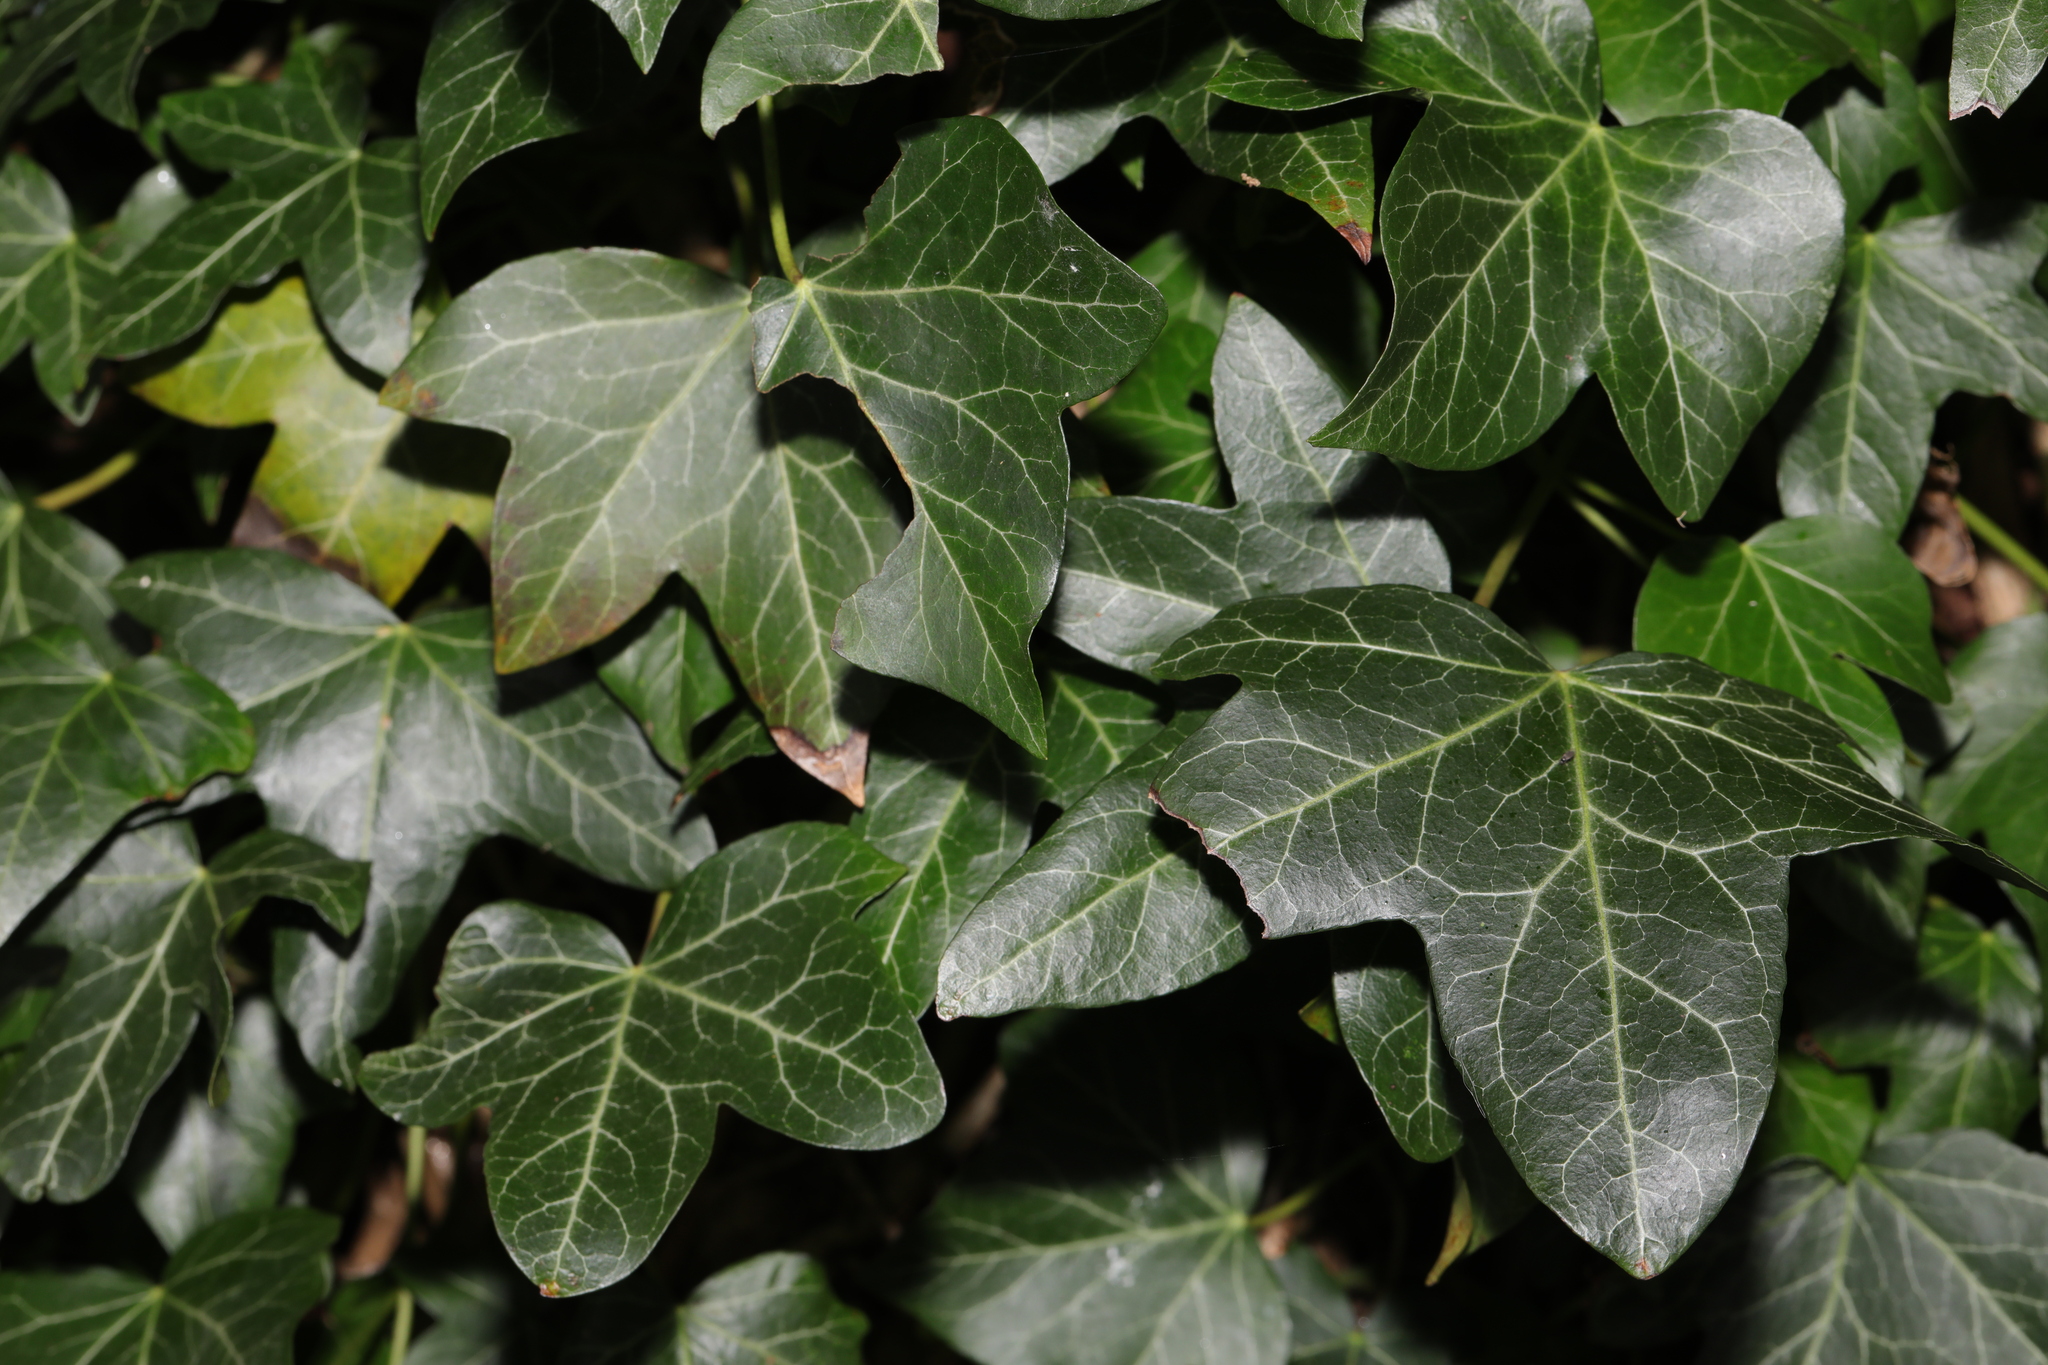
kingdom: Plantae
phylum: Tracheophyta
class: Magnoliopsida
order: Apiales
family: Araliaceae
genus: Hedera
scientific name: Hedera helix
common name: Ivy
